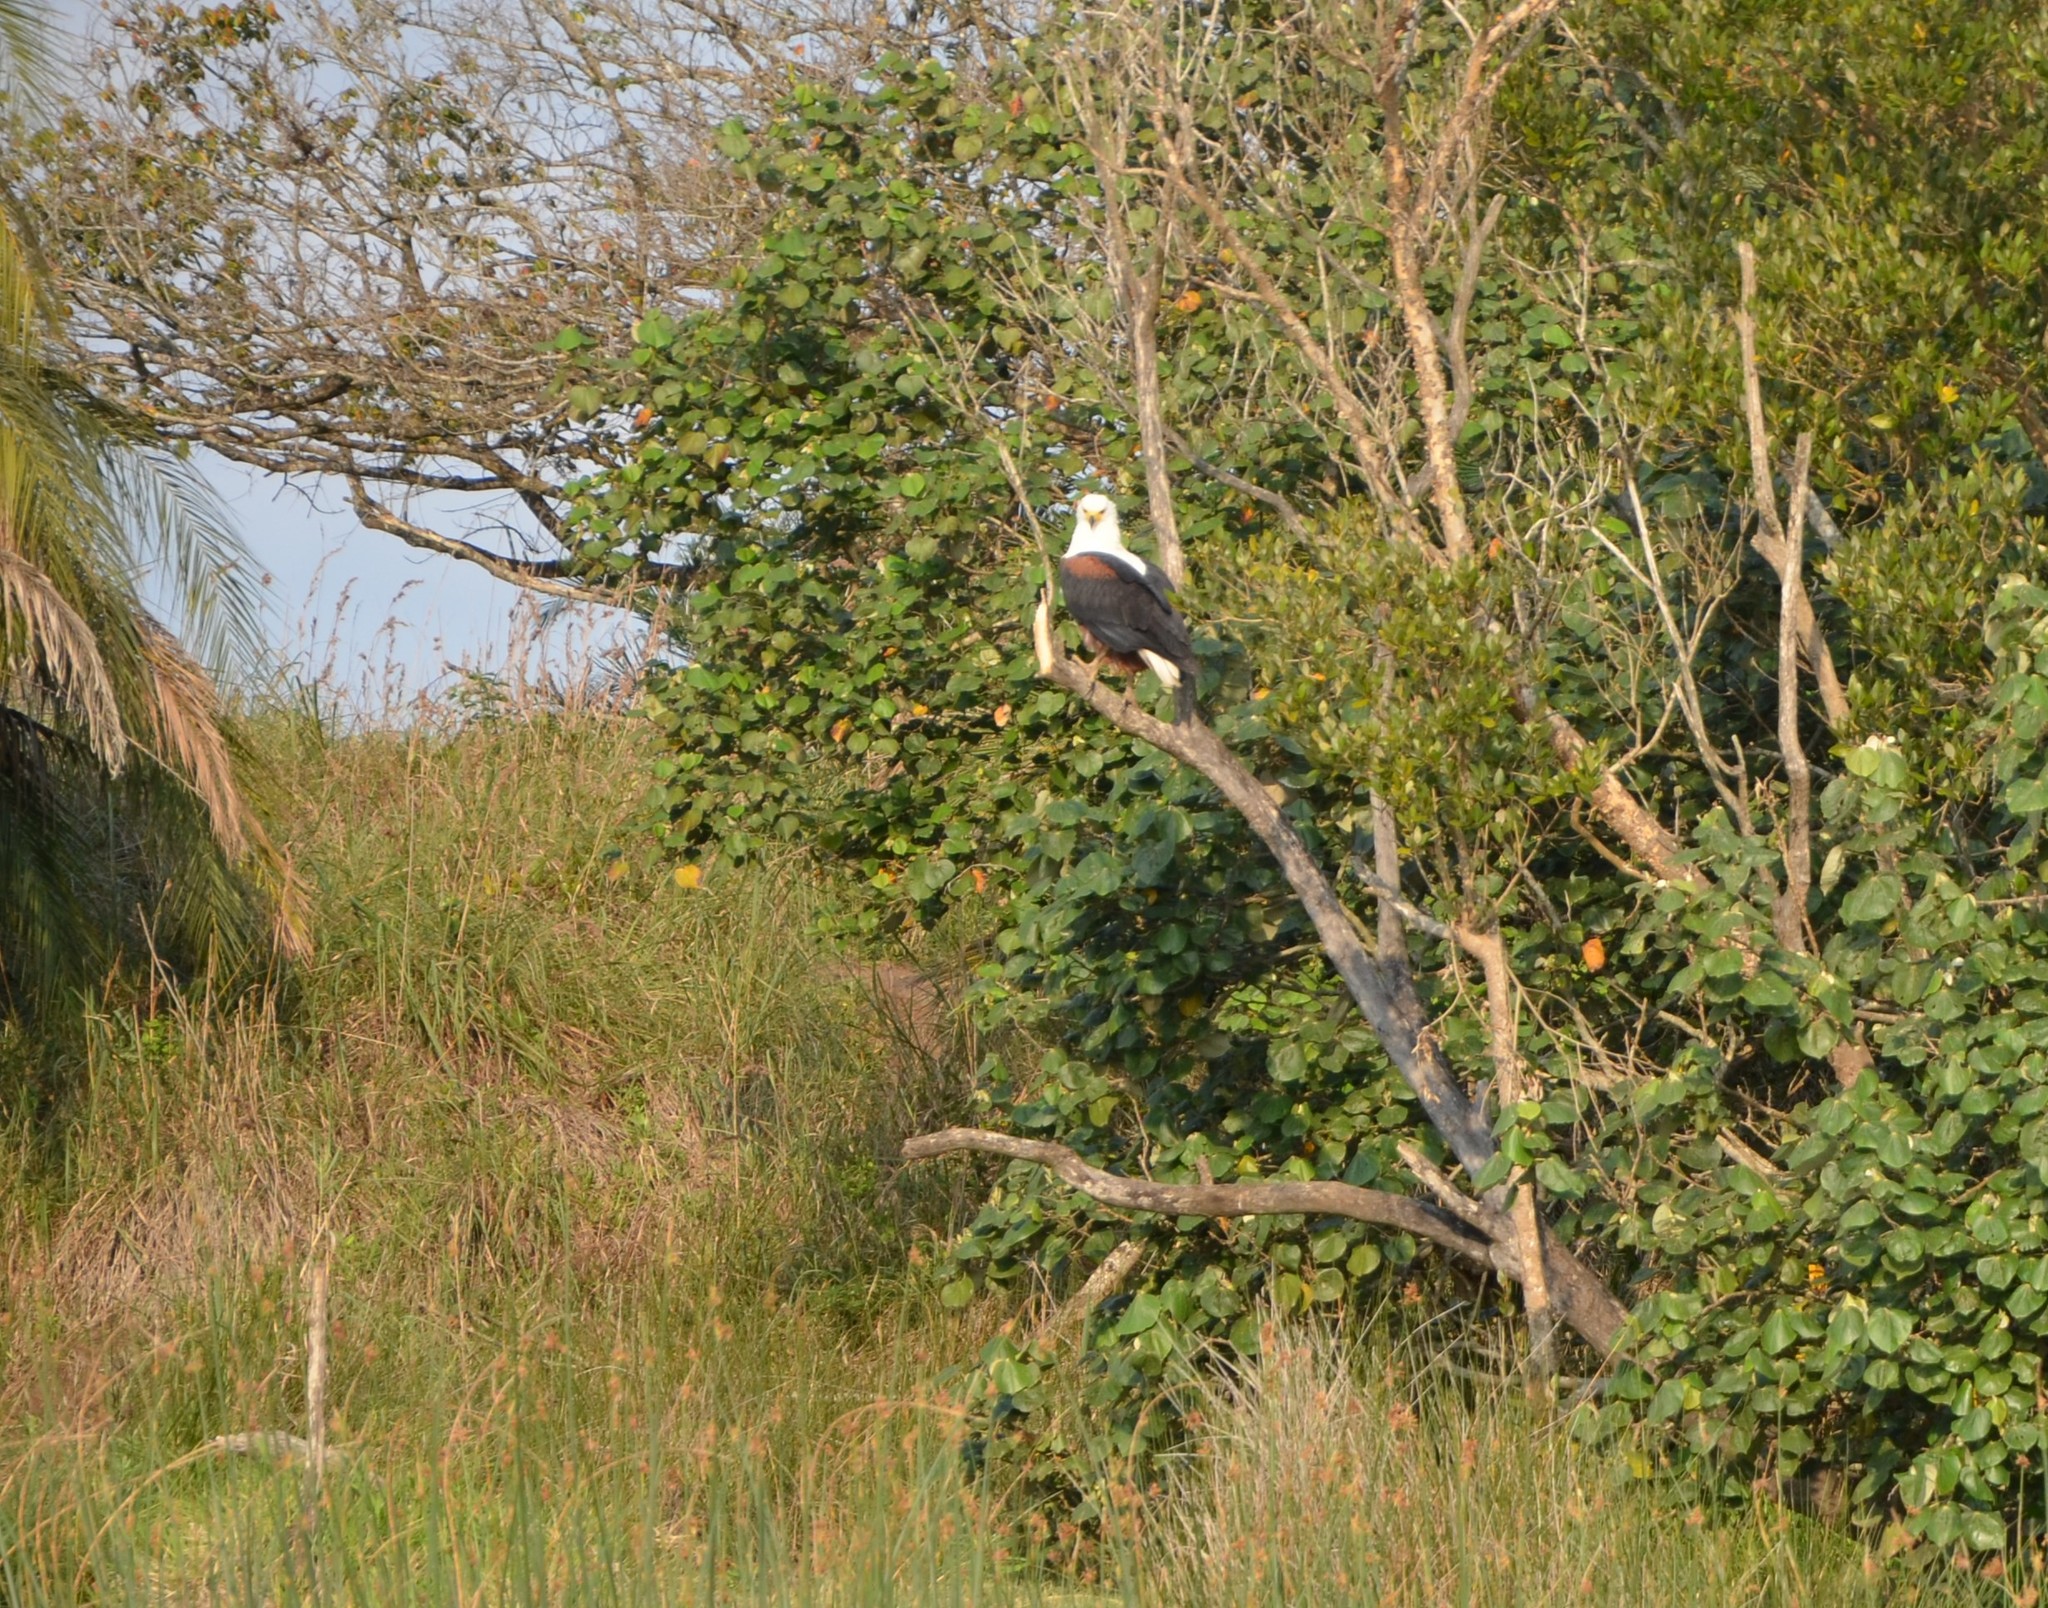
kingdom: Animalia
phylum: Chordata
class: Aves
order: Accipitriformes
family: Accipitridae
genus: Haliaeetus
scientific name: Haliaeetus vocifer
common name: African fish eagle
